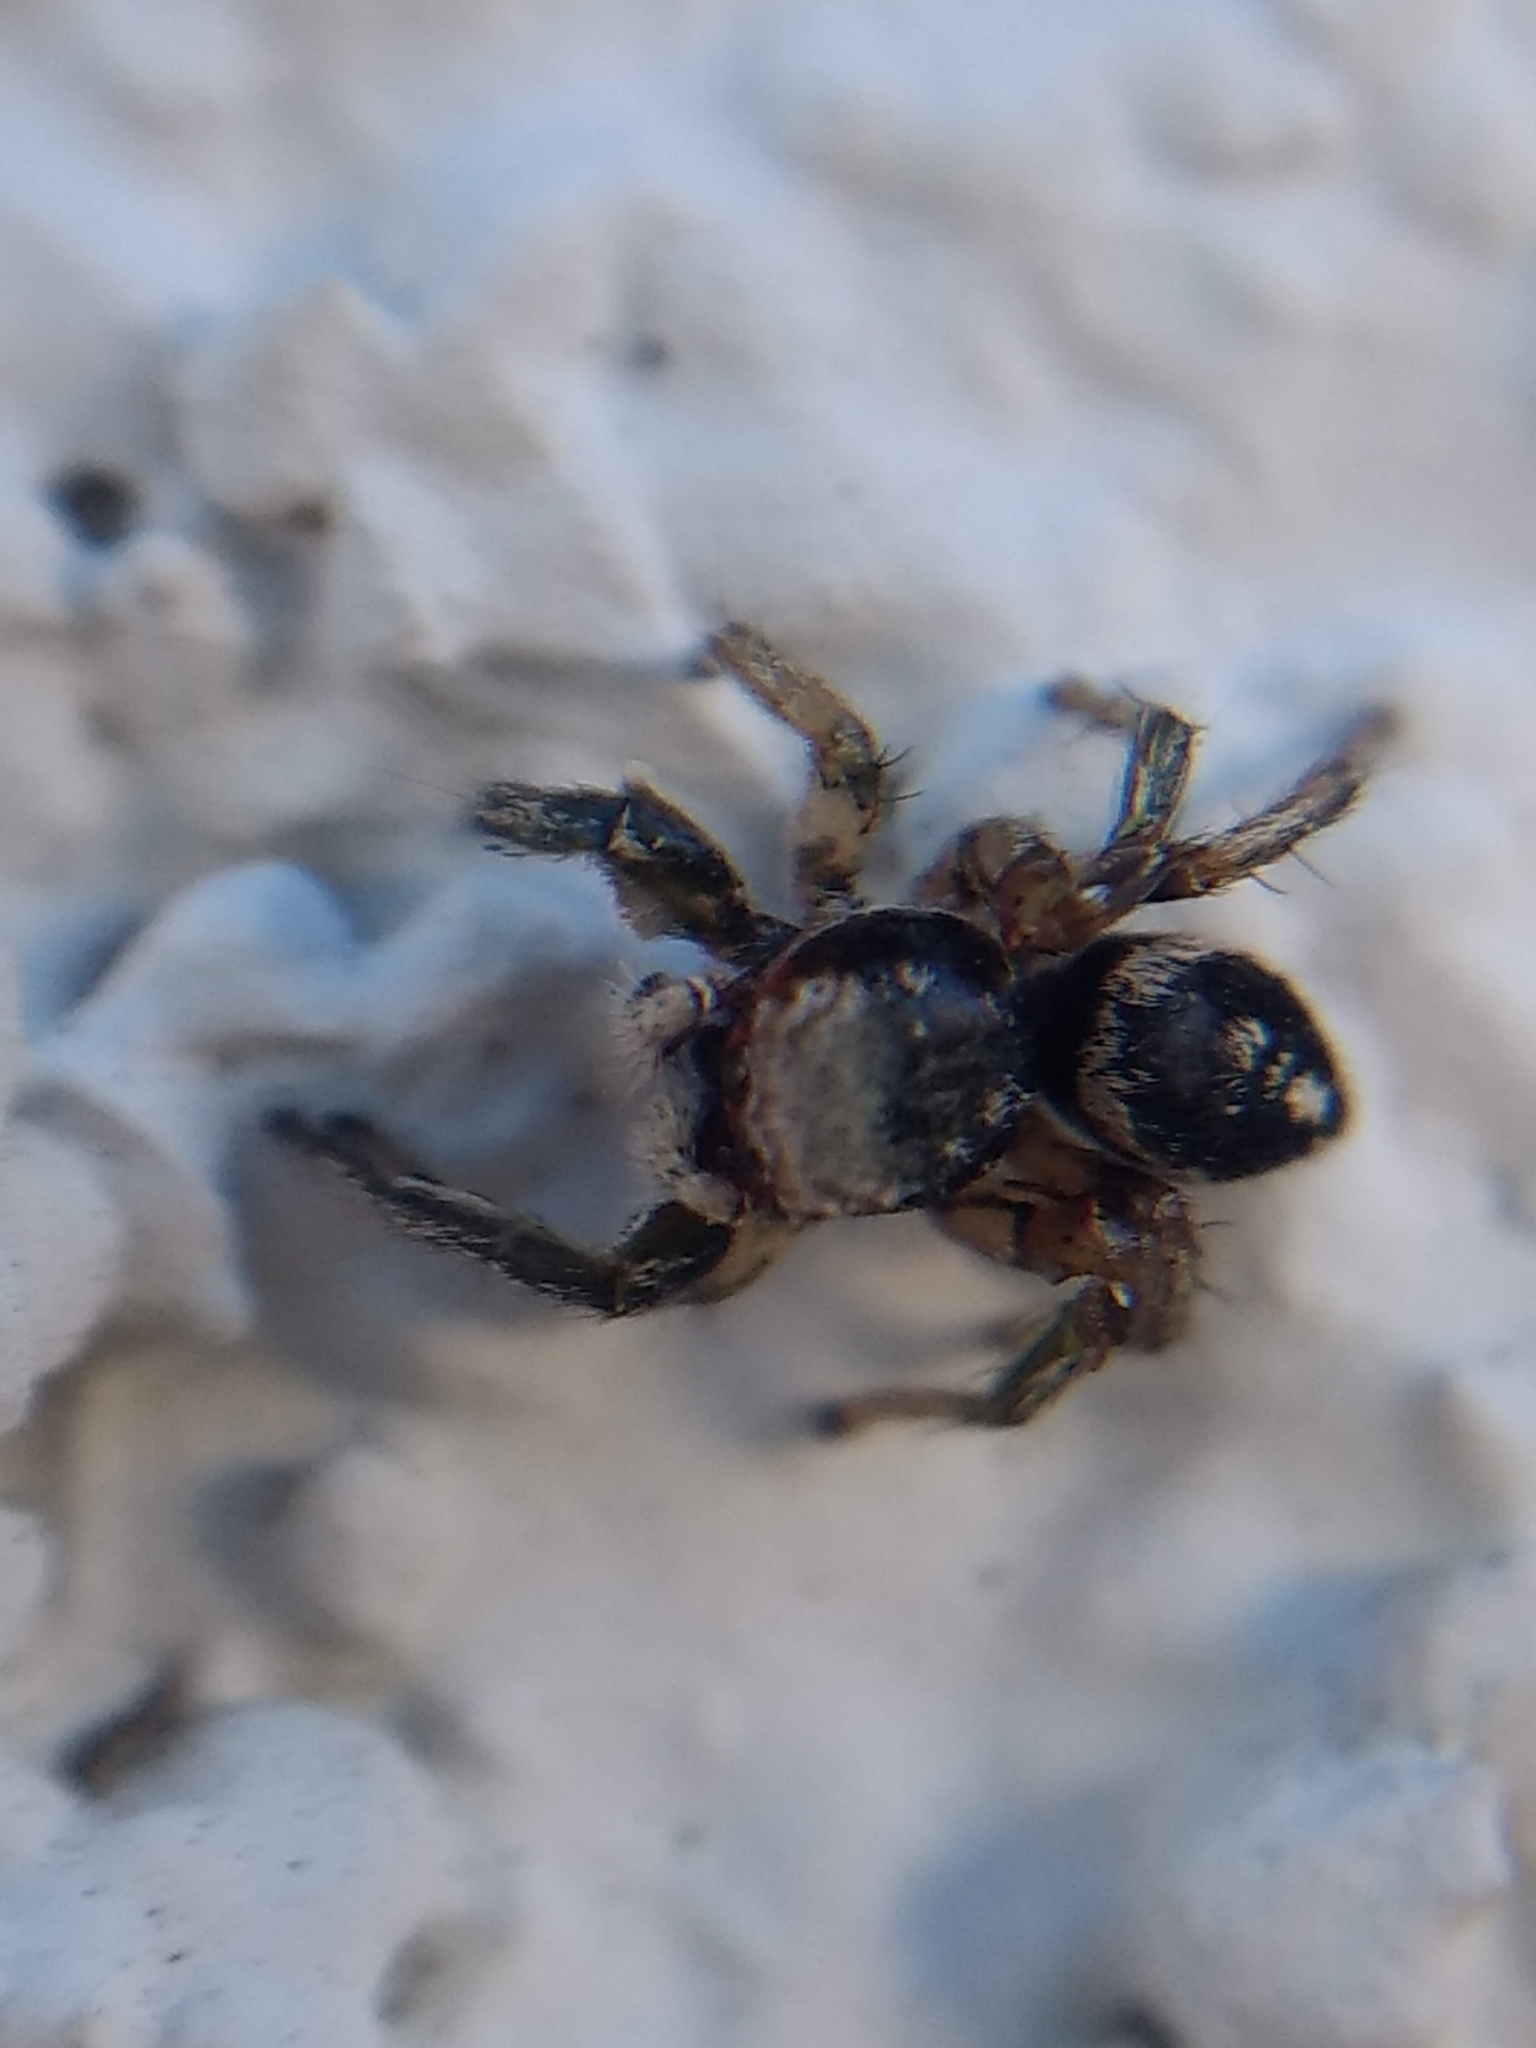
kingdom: Animalia
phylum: Arthropoda
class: Arachnida
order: Araneae
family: Salticidae
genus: Habronattus
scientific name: Habronattus pyrrithrix
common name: Jumping spider
